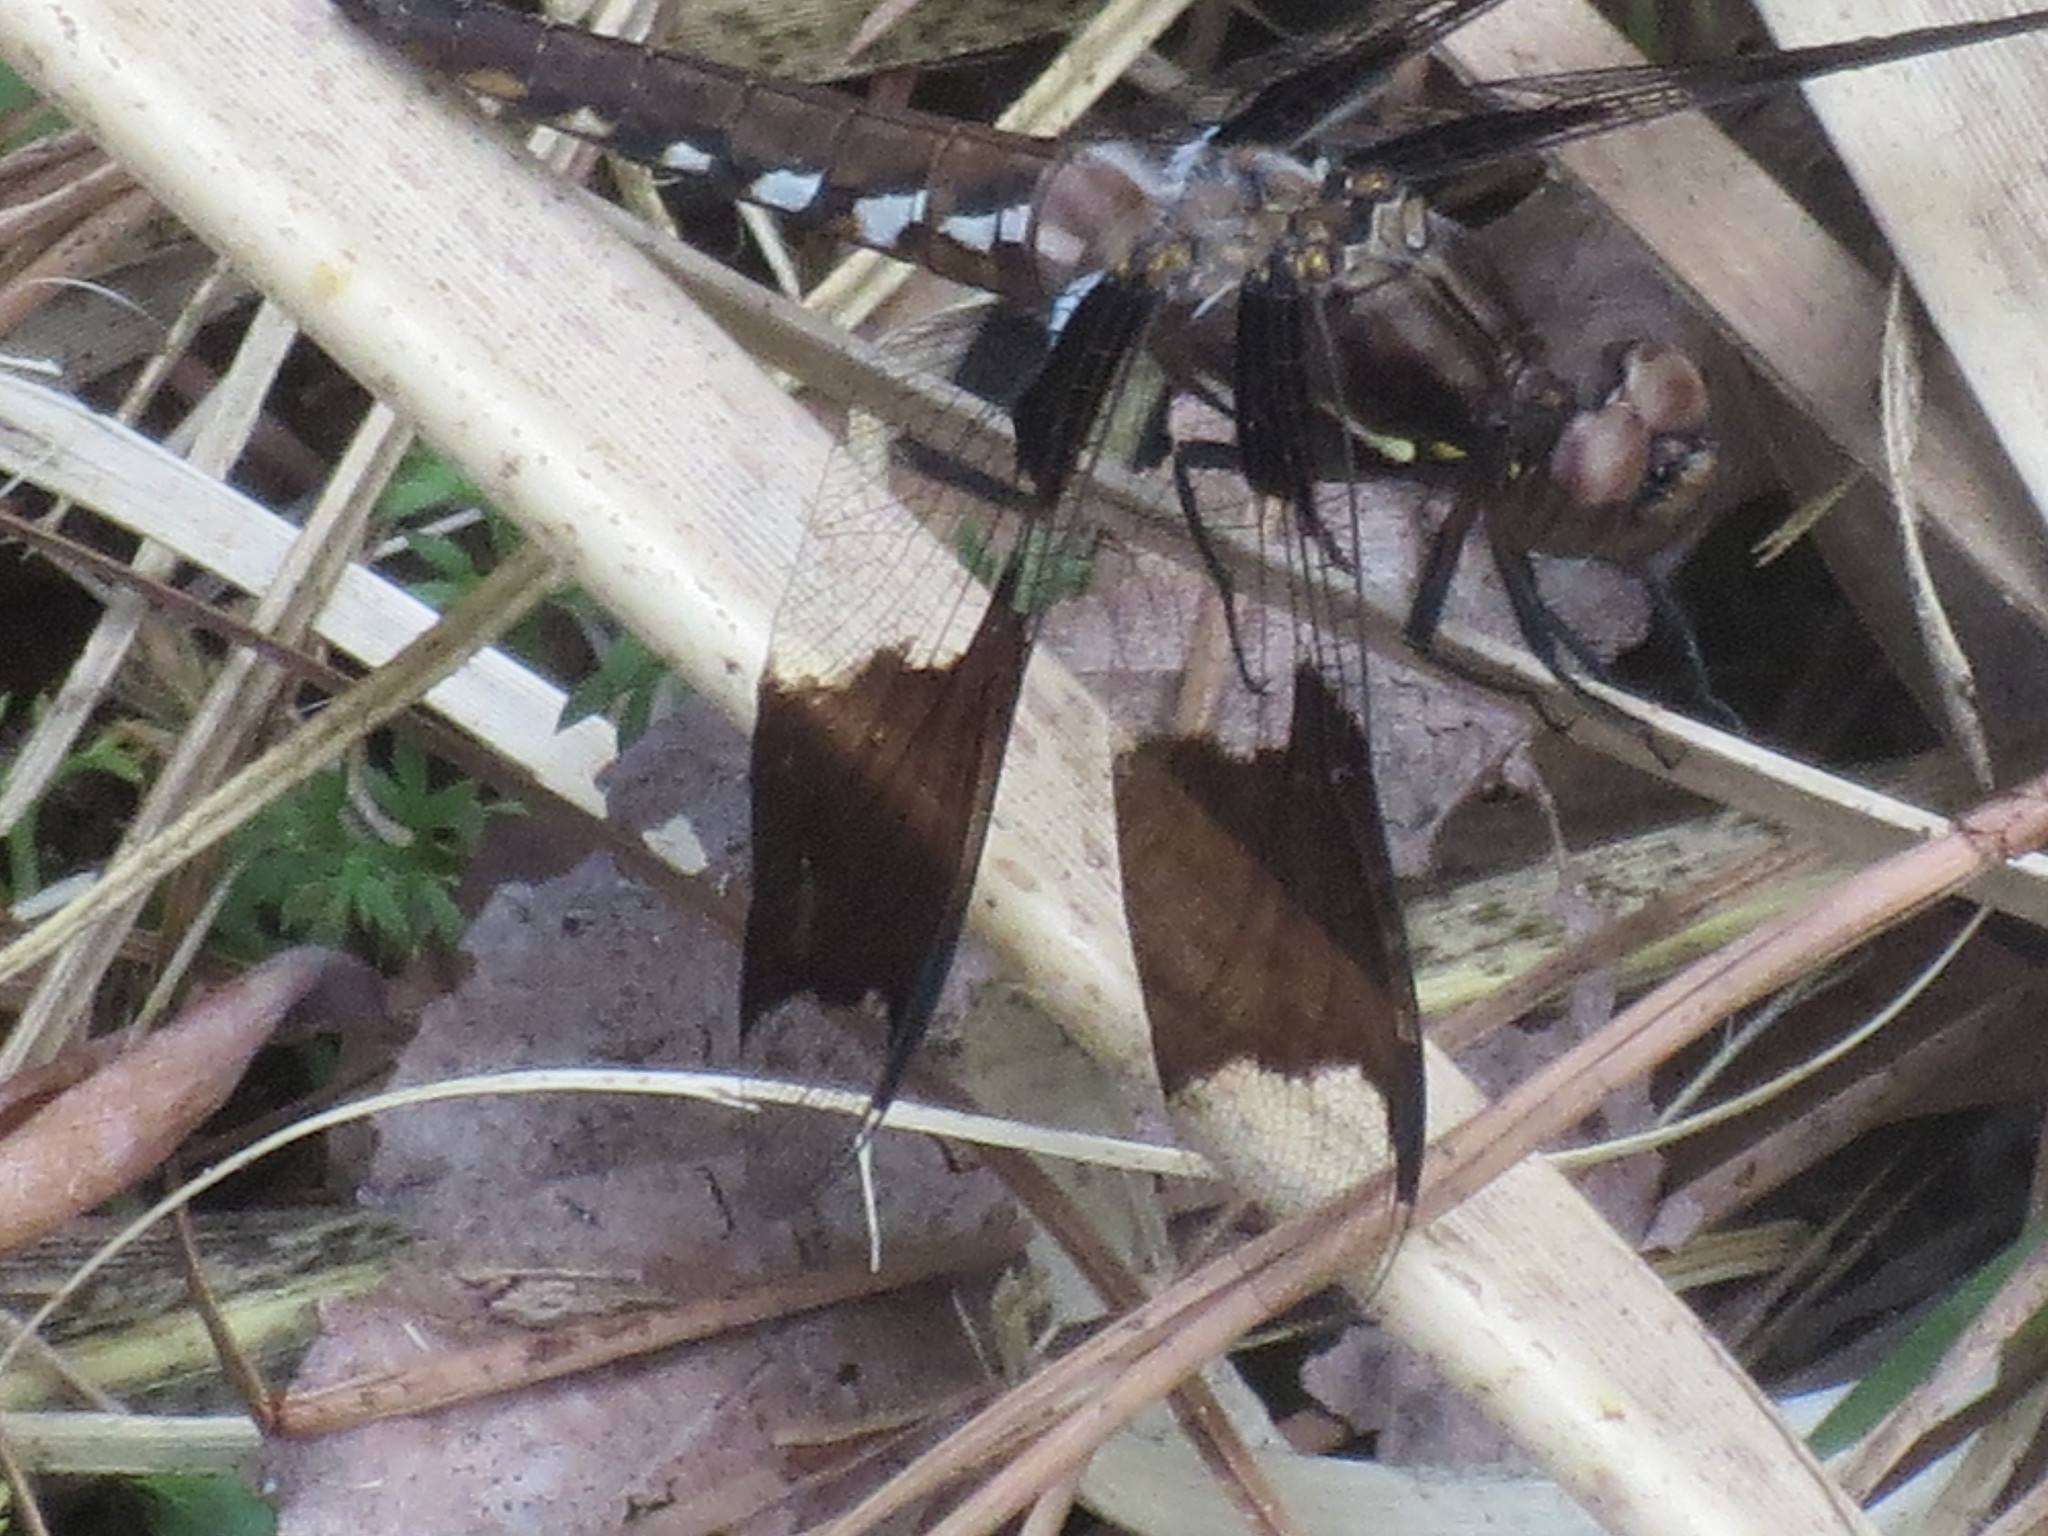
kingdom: Animalia
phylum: Arthropoda
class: Insecta
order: Odonata
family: Libellulidae
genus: Plathemis
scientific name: Plathemis lydia
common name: Common whitetail
